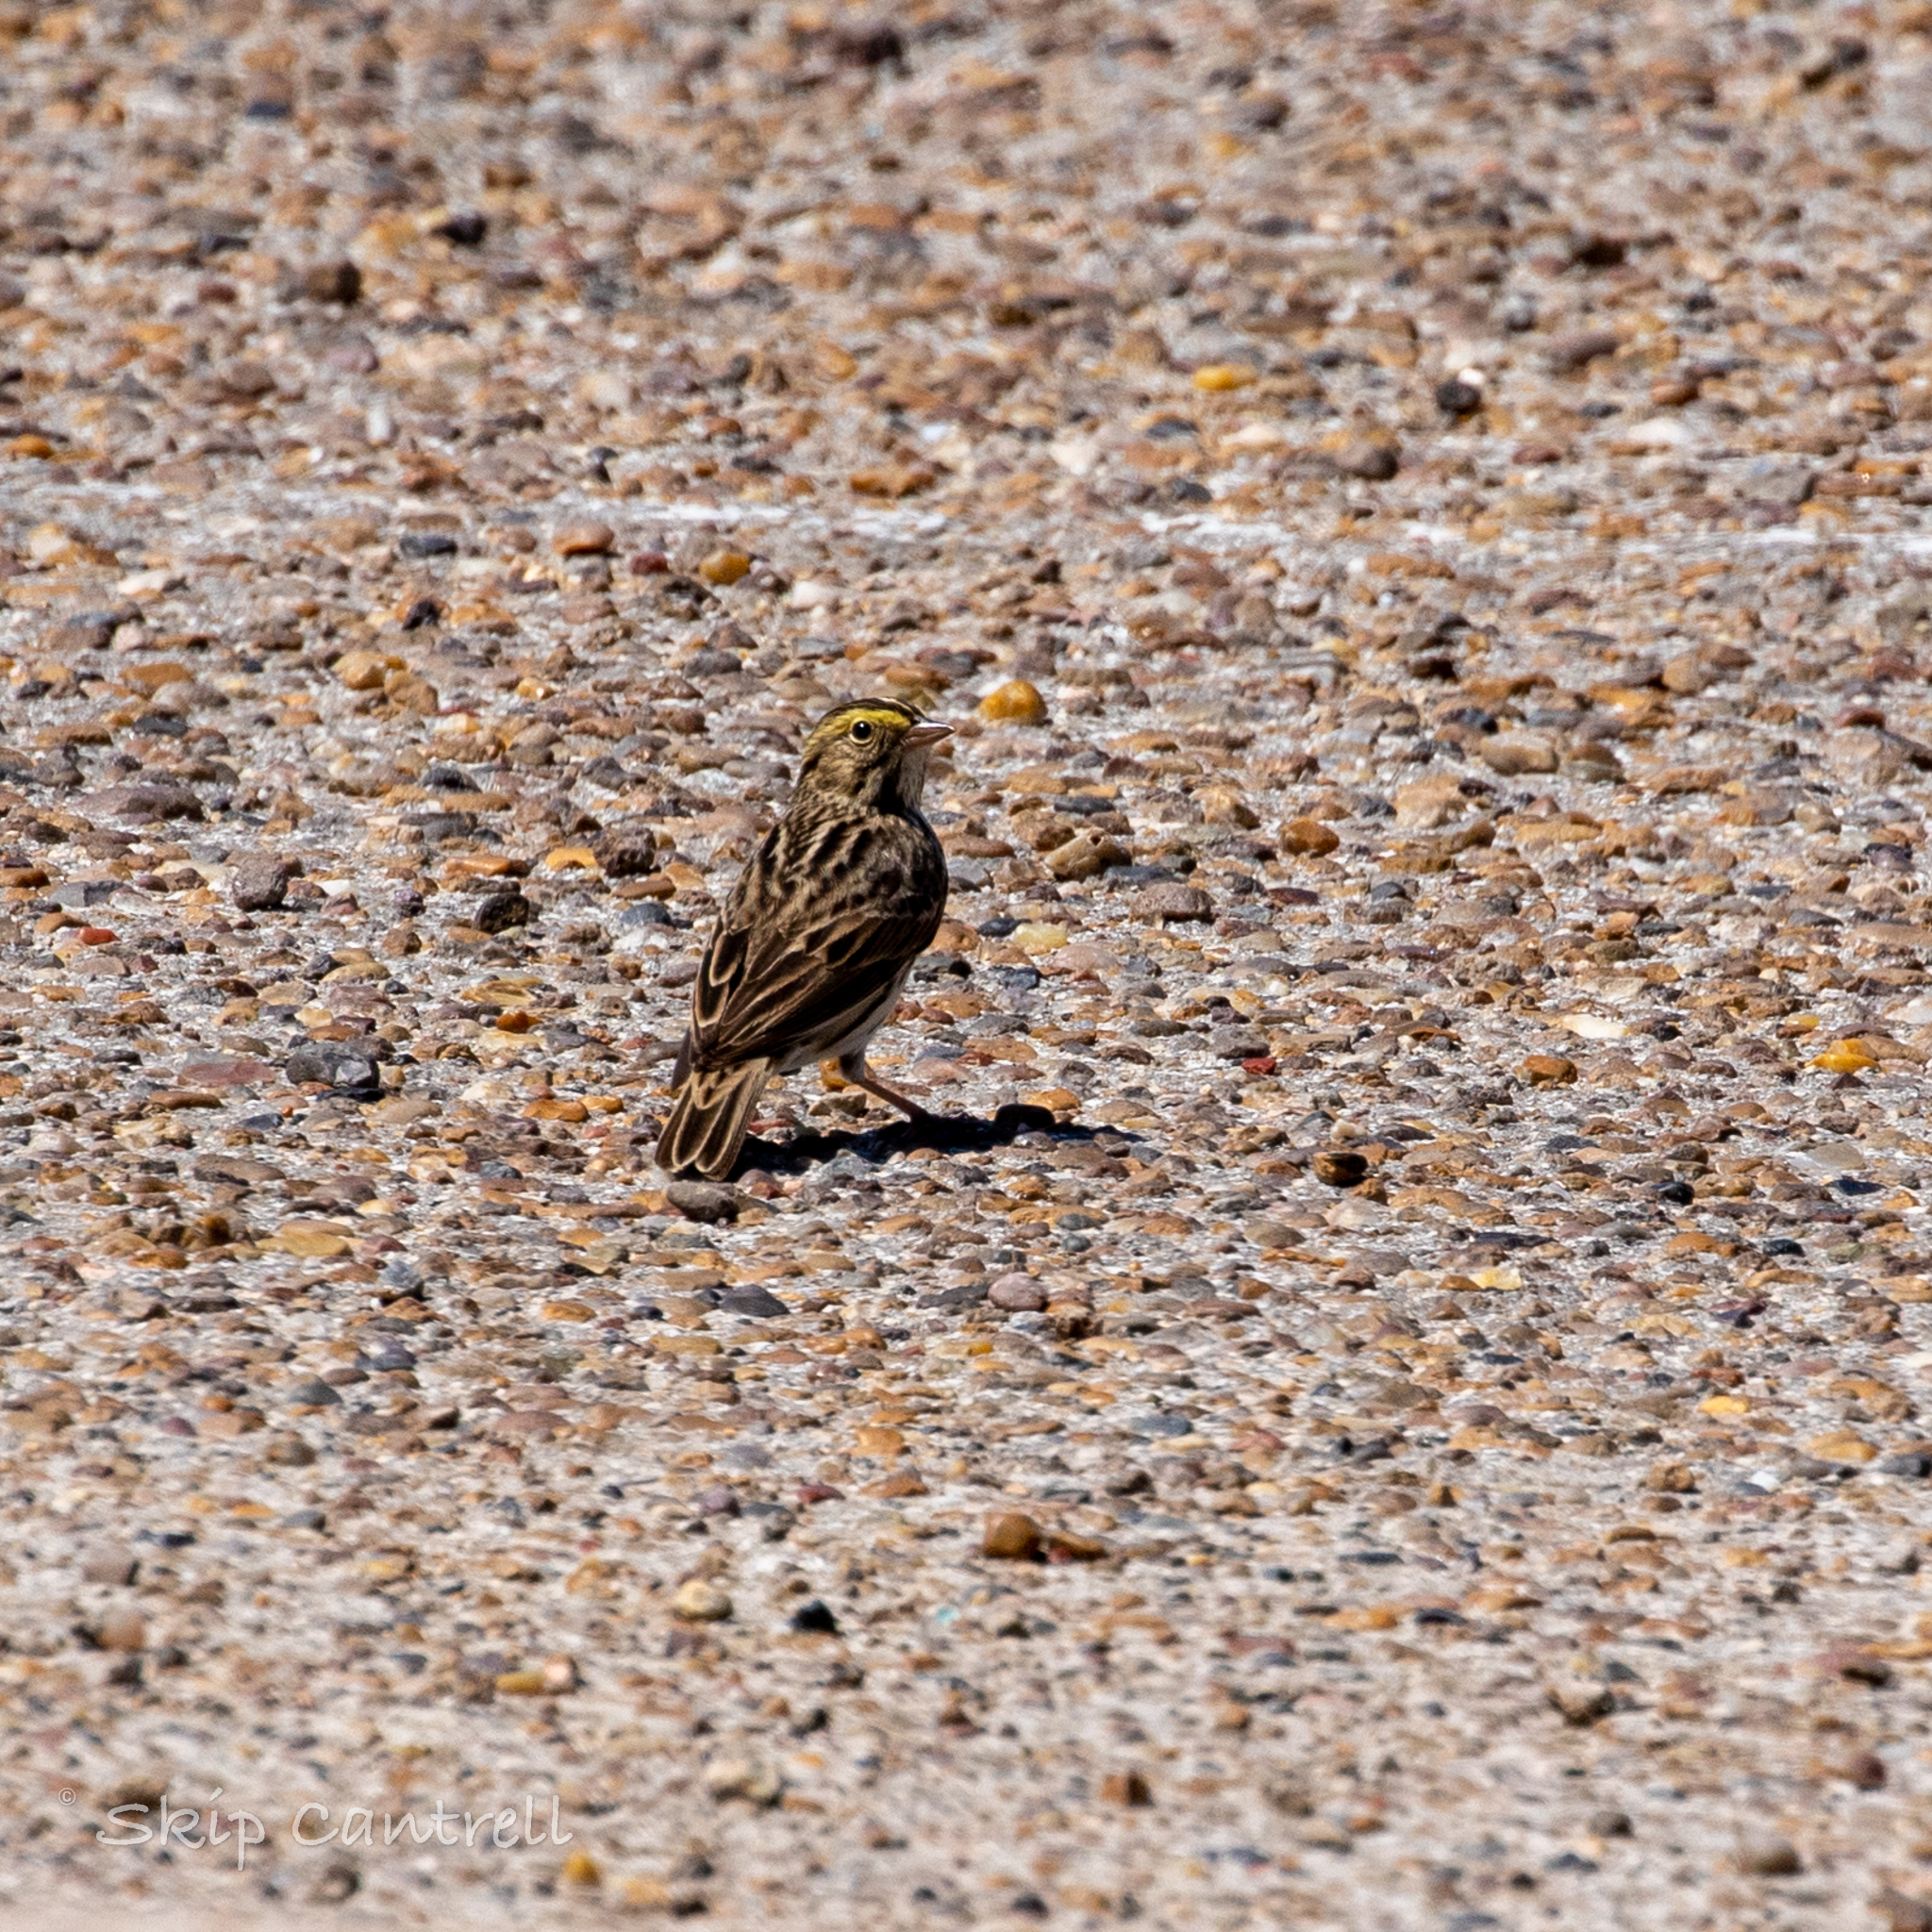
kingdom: Animalia
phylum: Chordata
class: Aves
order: Passeriformes
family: Passerellidae
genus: Passerculus
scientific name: Passerculus sandwichensis
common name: Savannah sparrow
